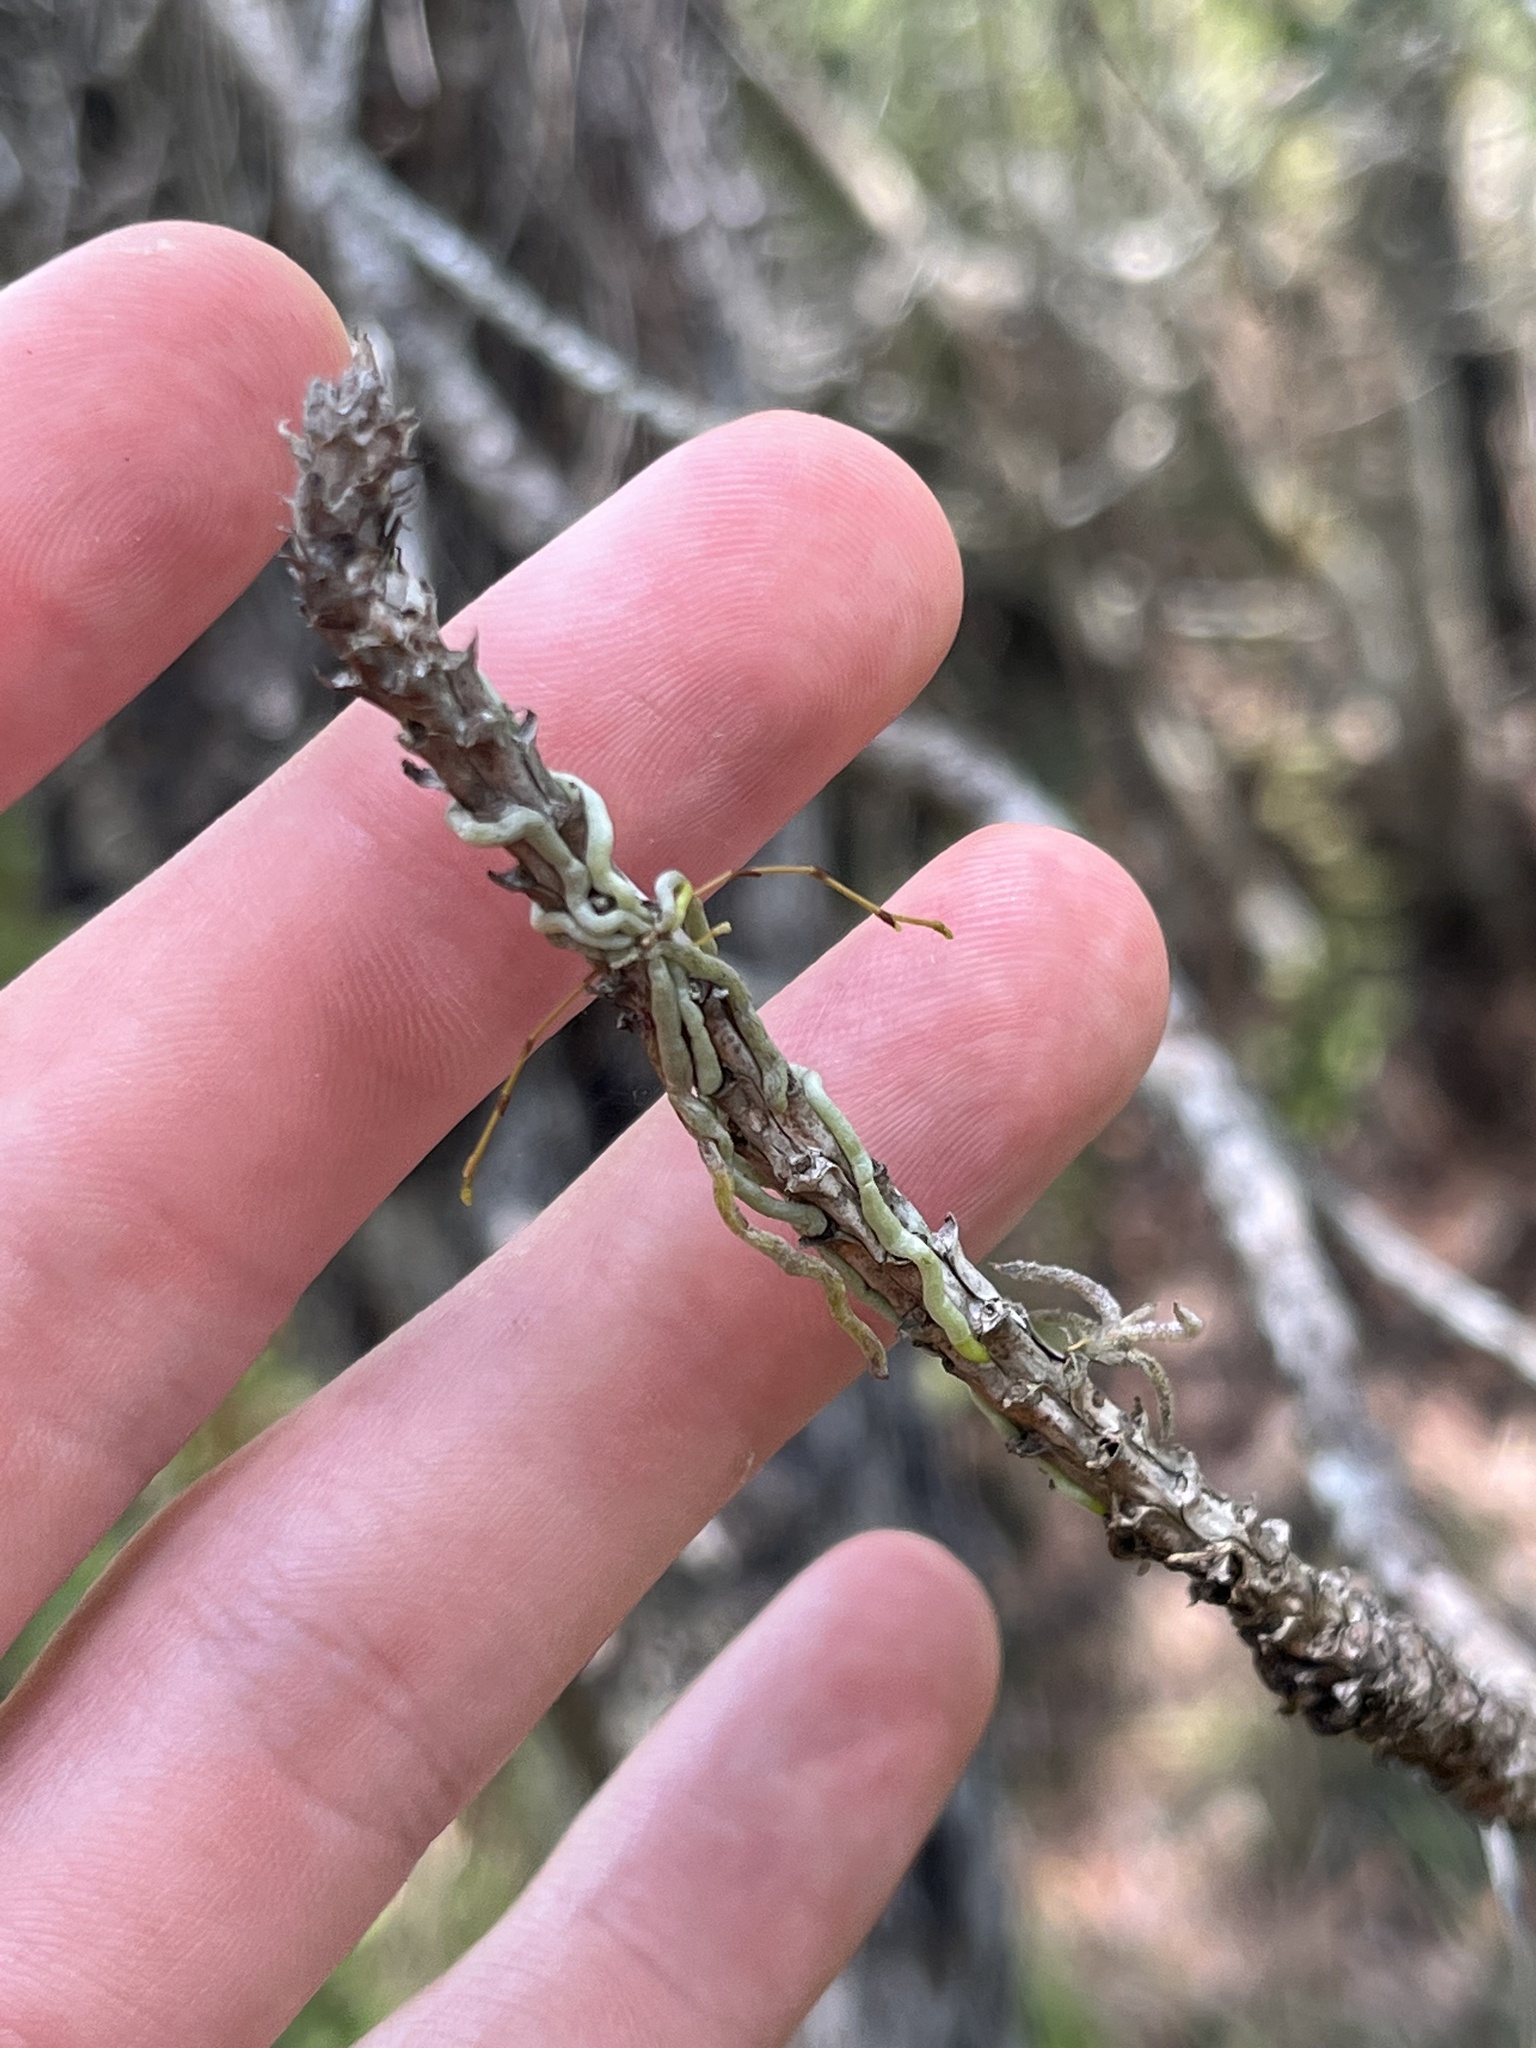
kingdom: Plantae
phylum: Tracheophyta
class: Liliopsida
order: Asparagales
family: Orchidaceae
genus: Dendrophylax
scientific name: Dendrophylax porrectus
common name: Needleroot airplant orchid
